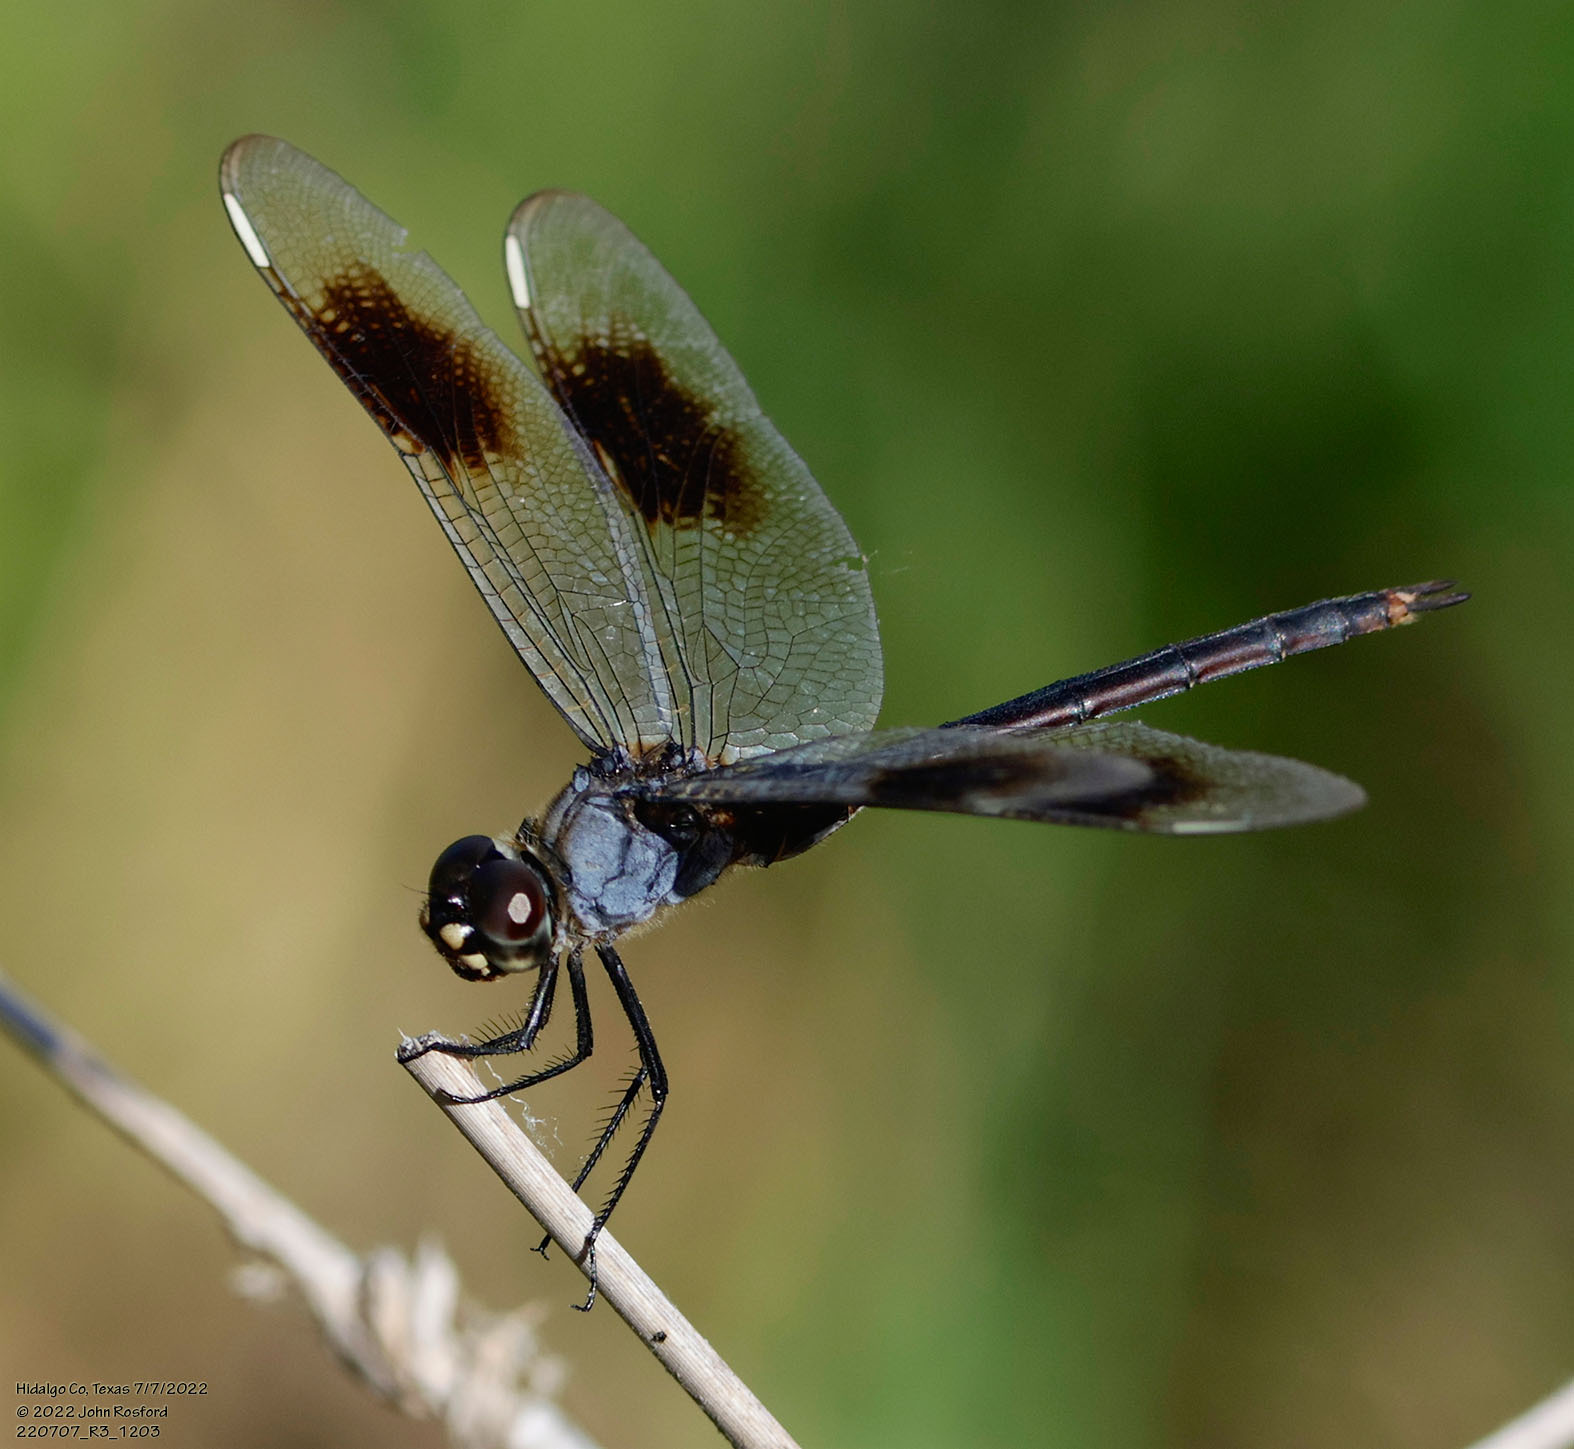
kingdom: Animalia
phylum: Arthropoda
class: Insecta
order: Odonata
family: Libellulidae
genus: Brachymesia
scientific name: Brachymesia gravida
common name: Four-spotted pennant
